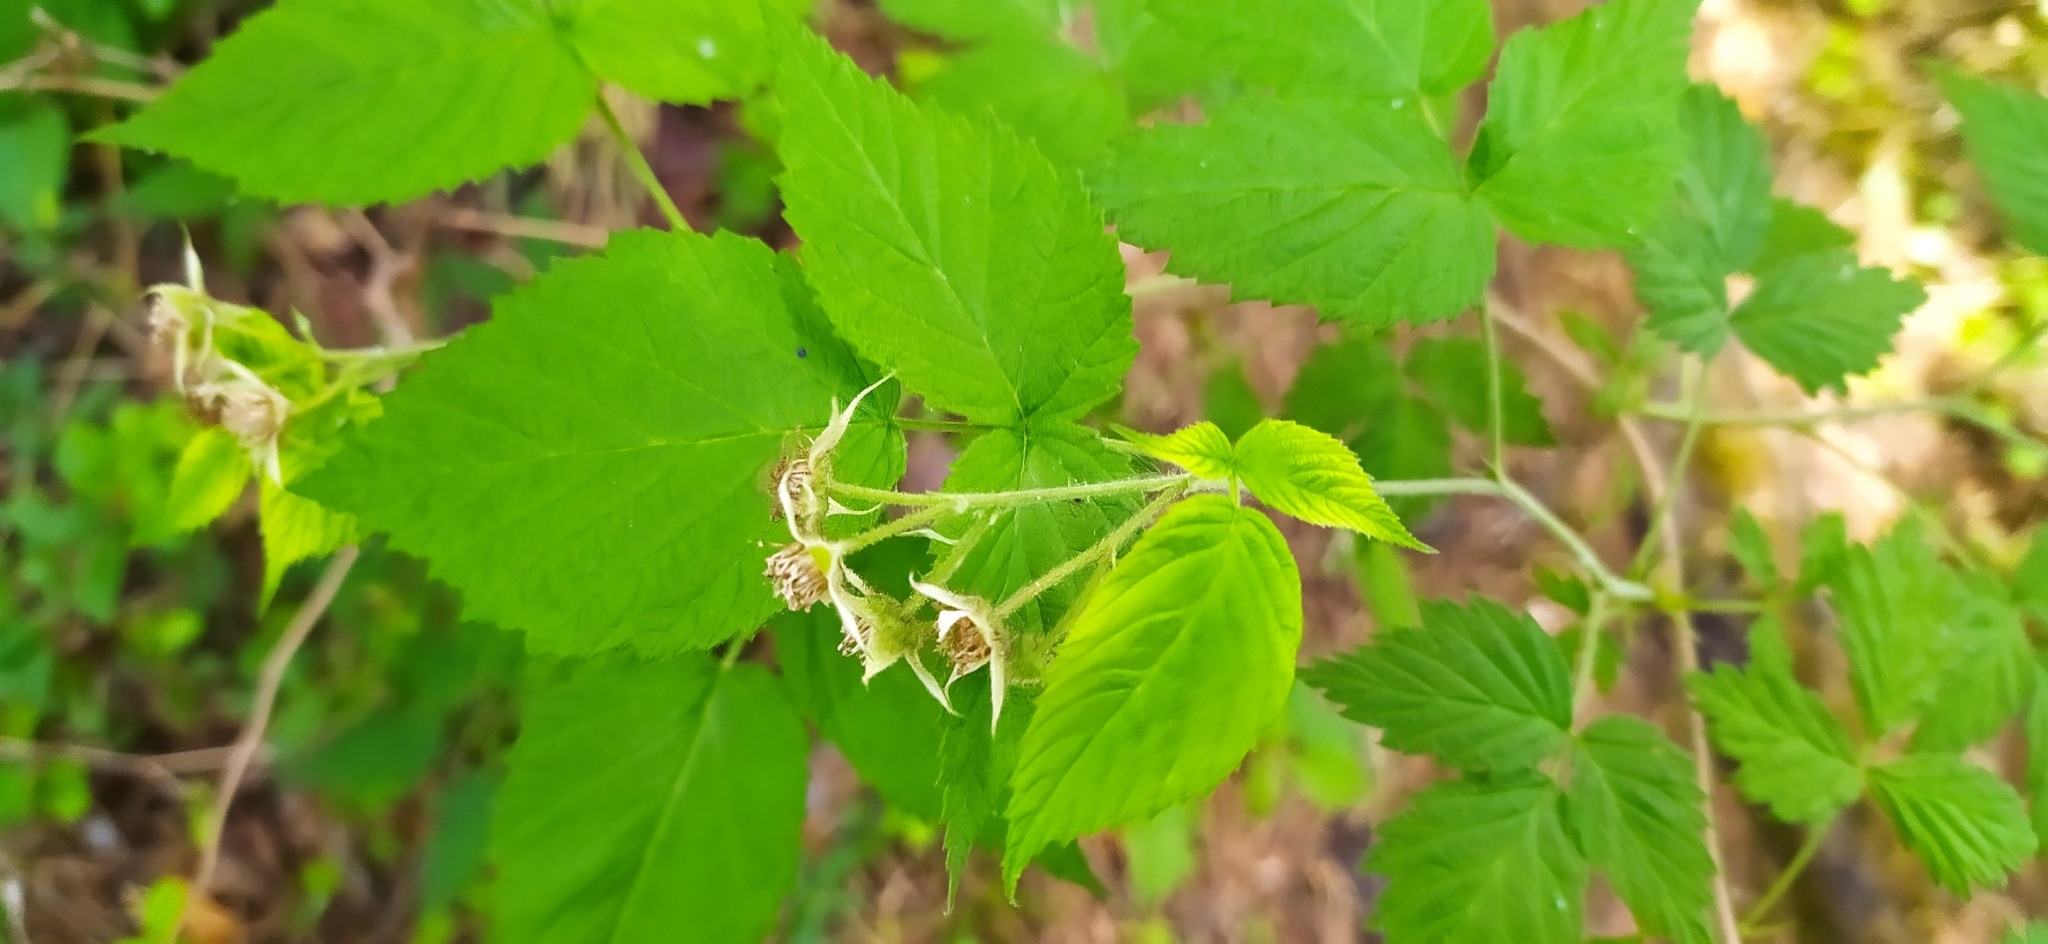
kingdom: Plantae
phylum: Tracheophyta
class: Magnoliopsida
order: Rosales
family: Rosaceae
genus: Rubus
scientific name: Rubus idaeus
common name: Raspberry
